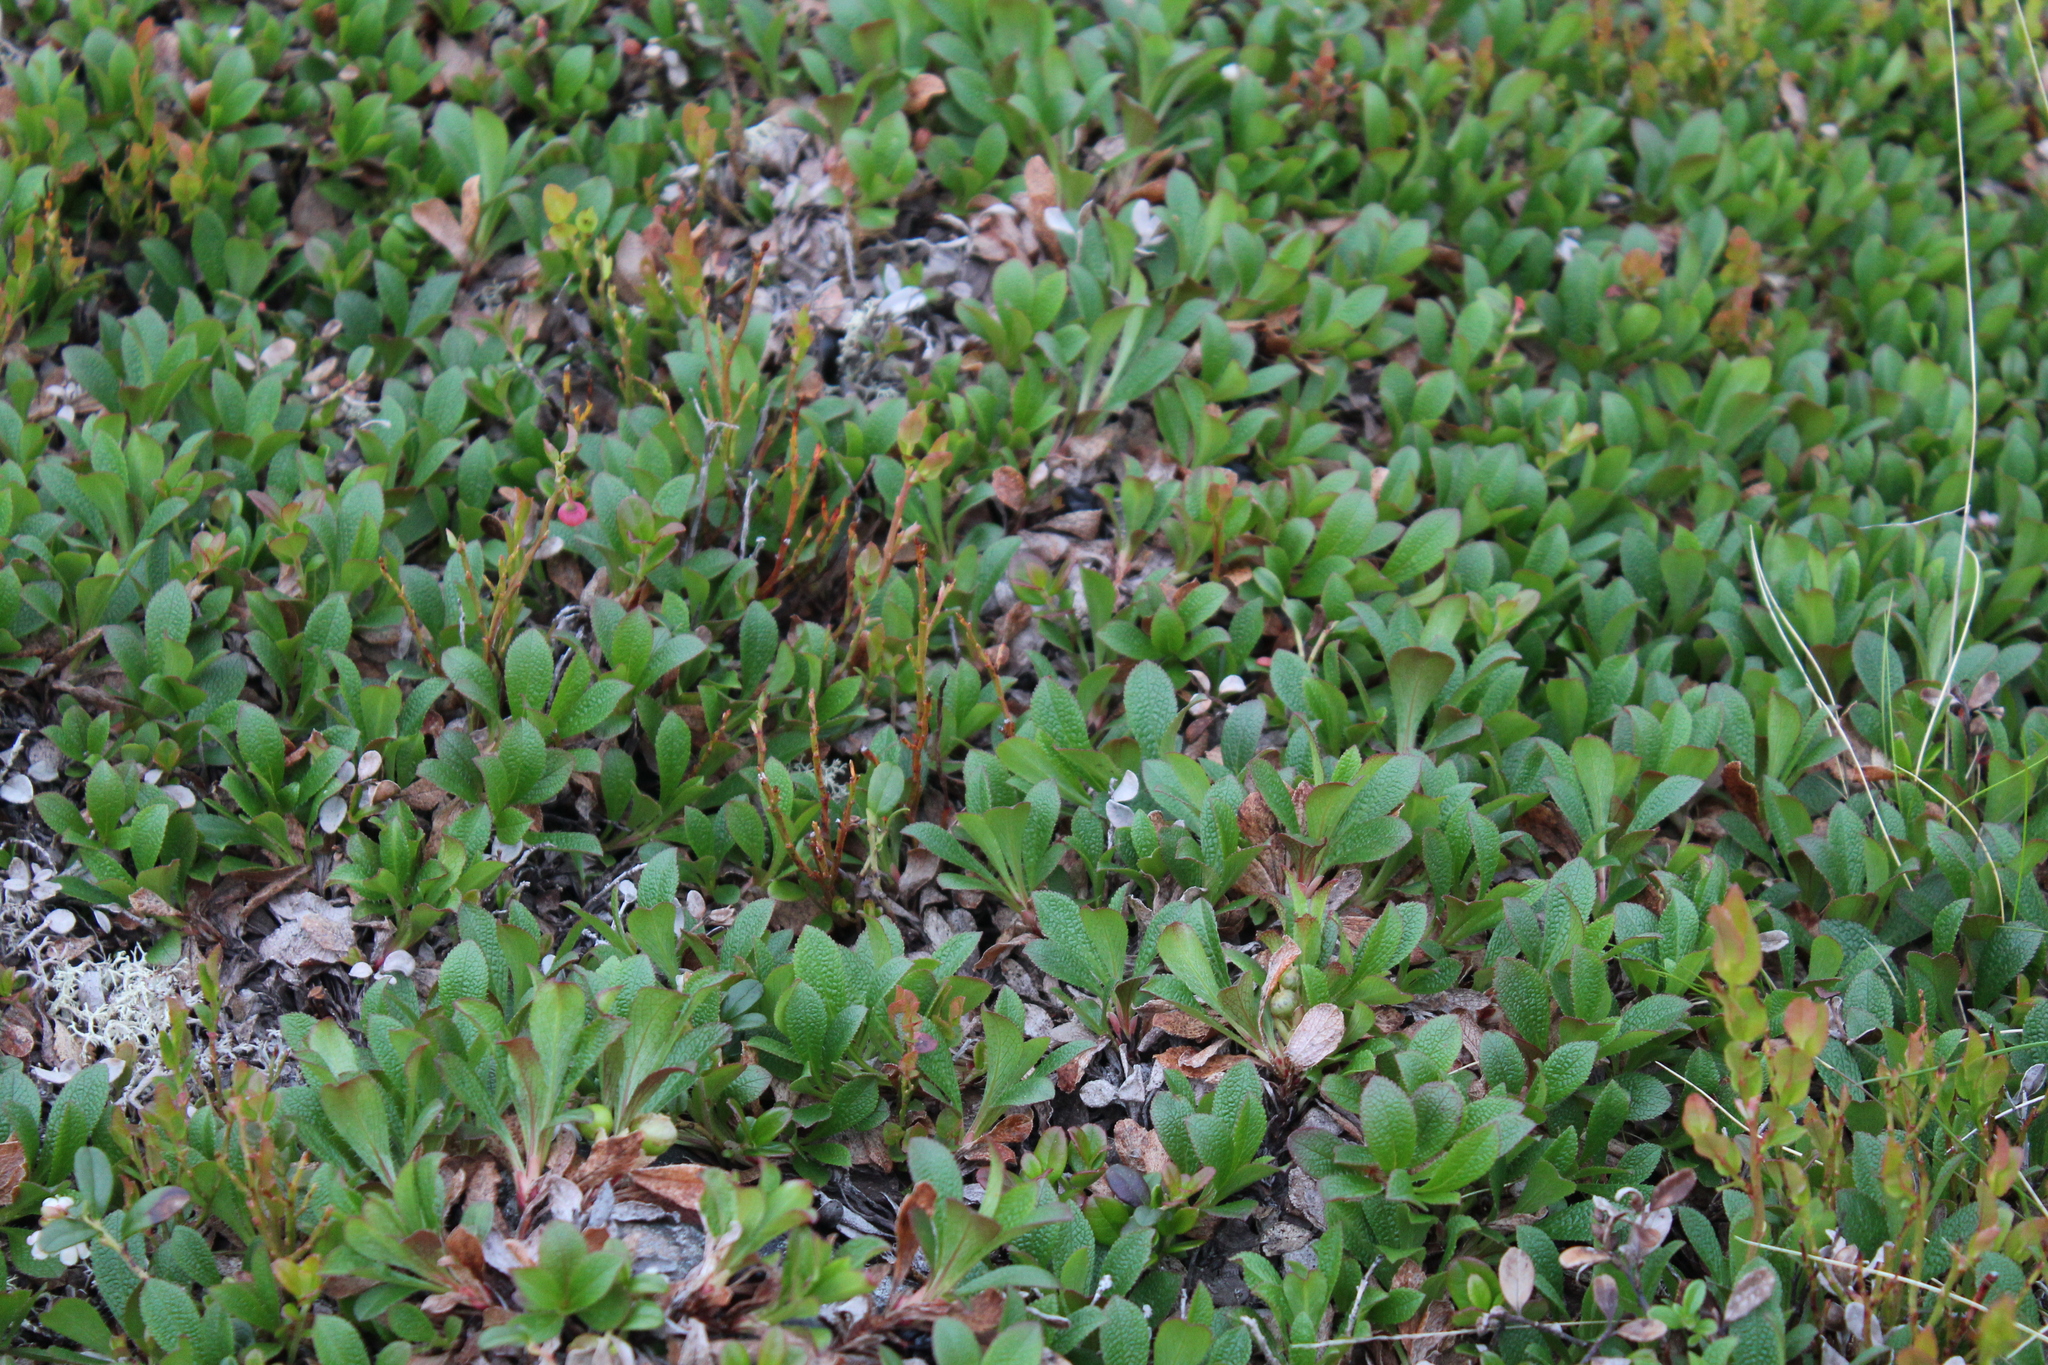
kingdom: Plantae
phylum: Tracheophyta
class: Magnoliopsida
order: Ericales
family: Ericaceae
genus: Arctostaphylos
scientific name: Arctostaphylos alpinus
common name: Alpine bearberry
